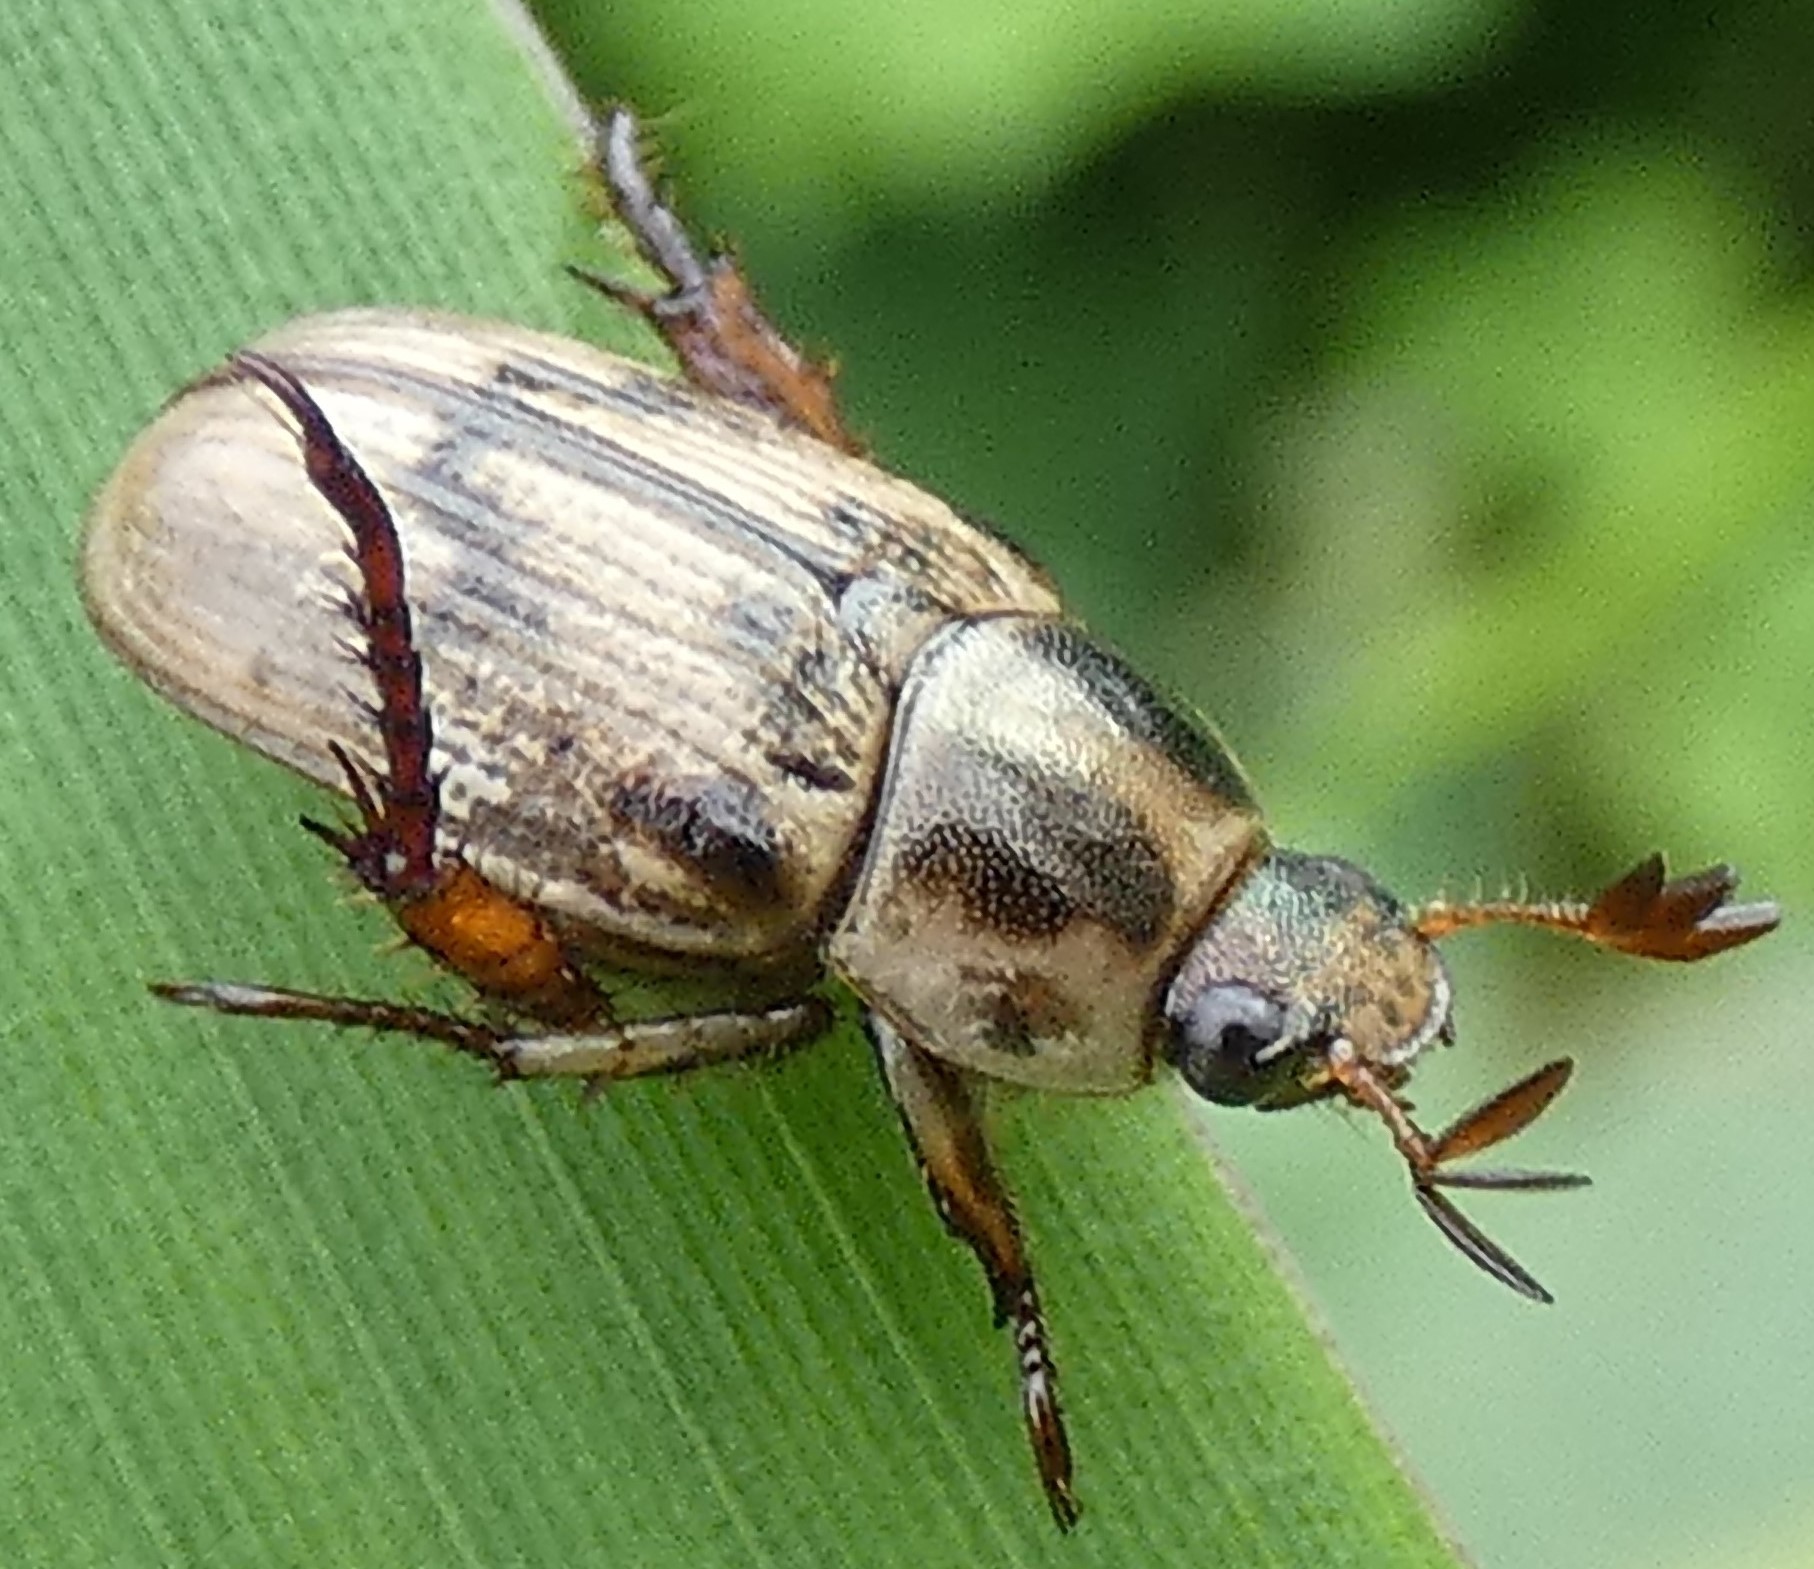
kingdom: Animalia
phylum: Arthropoda
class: Insecta
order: Coleoptera
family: Scarabaeidae
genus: Exomala
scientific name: Exomala orientalis
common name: Oriental beetle
